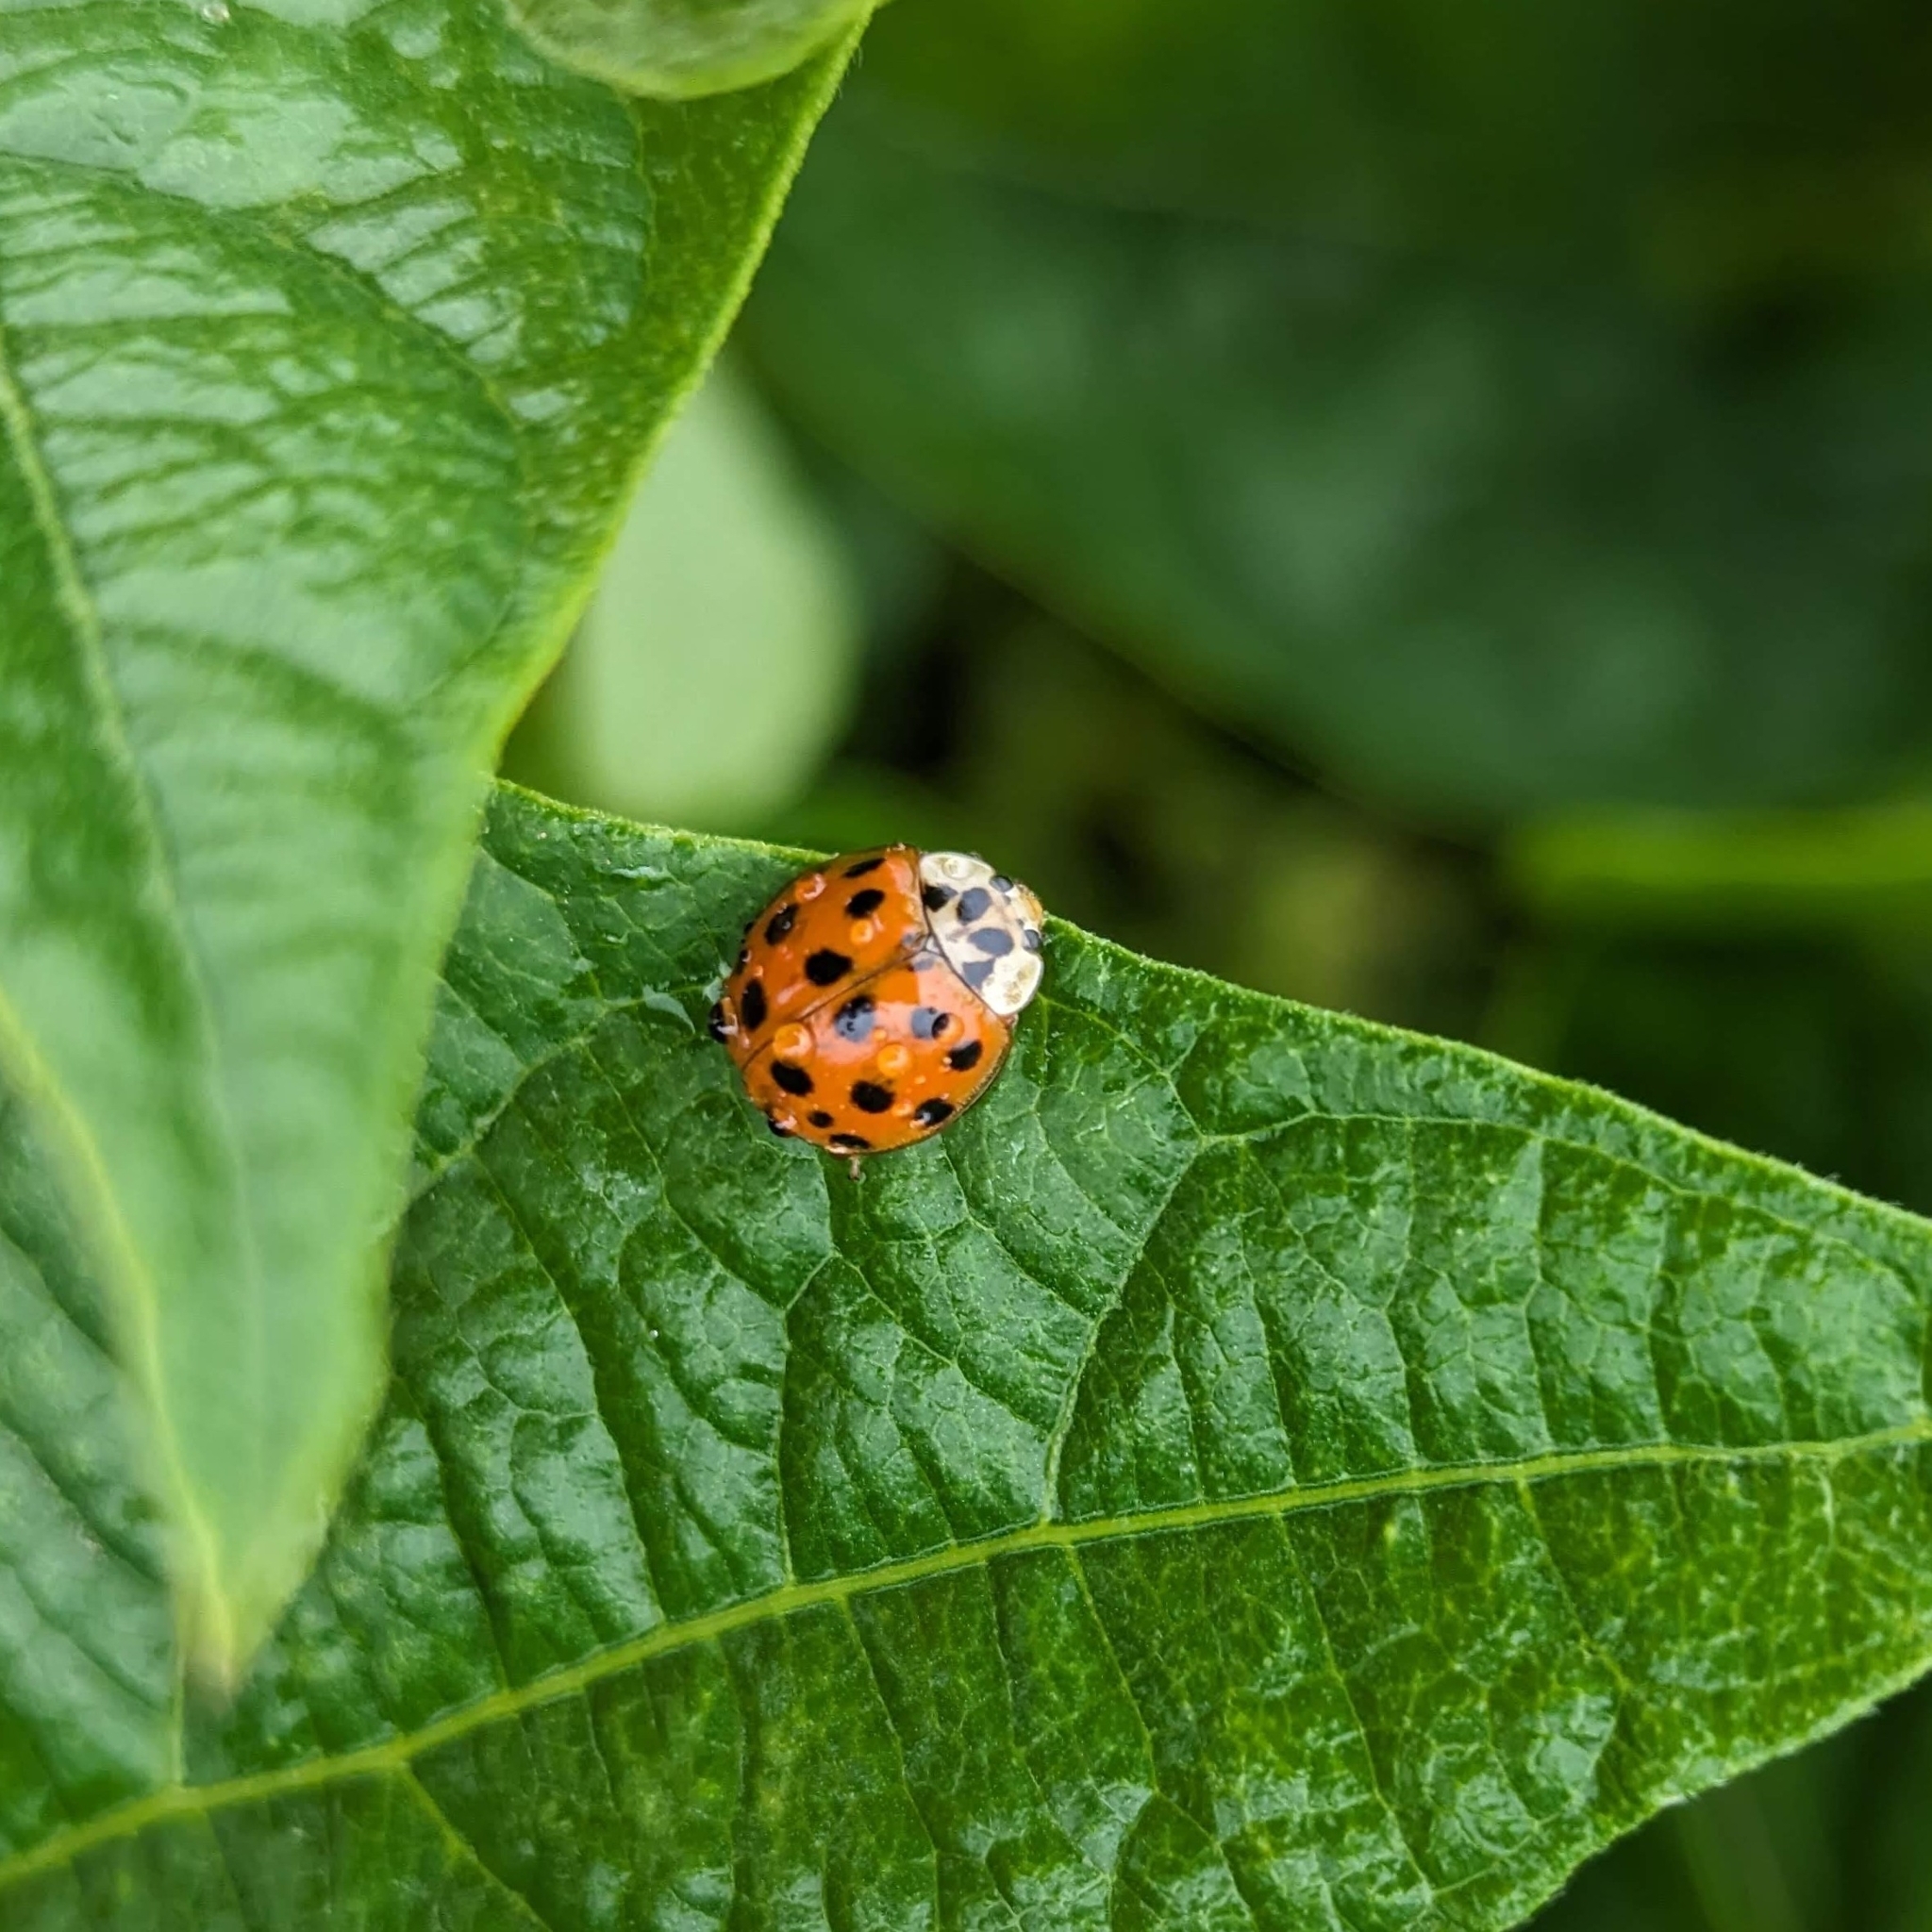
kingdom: Animalia
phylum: Arthropoda
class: Insecta
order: Coleoptera
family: Coccinellidae
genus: Harmonia
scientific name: Harmonia axyridis
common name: Harlequin ladybird
